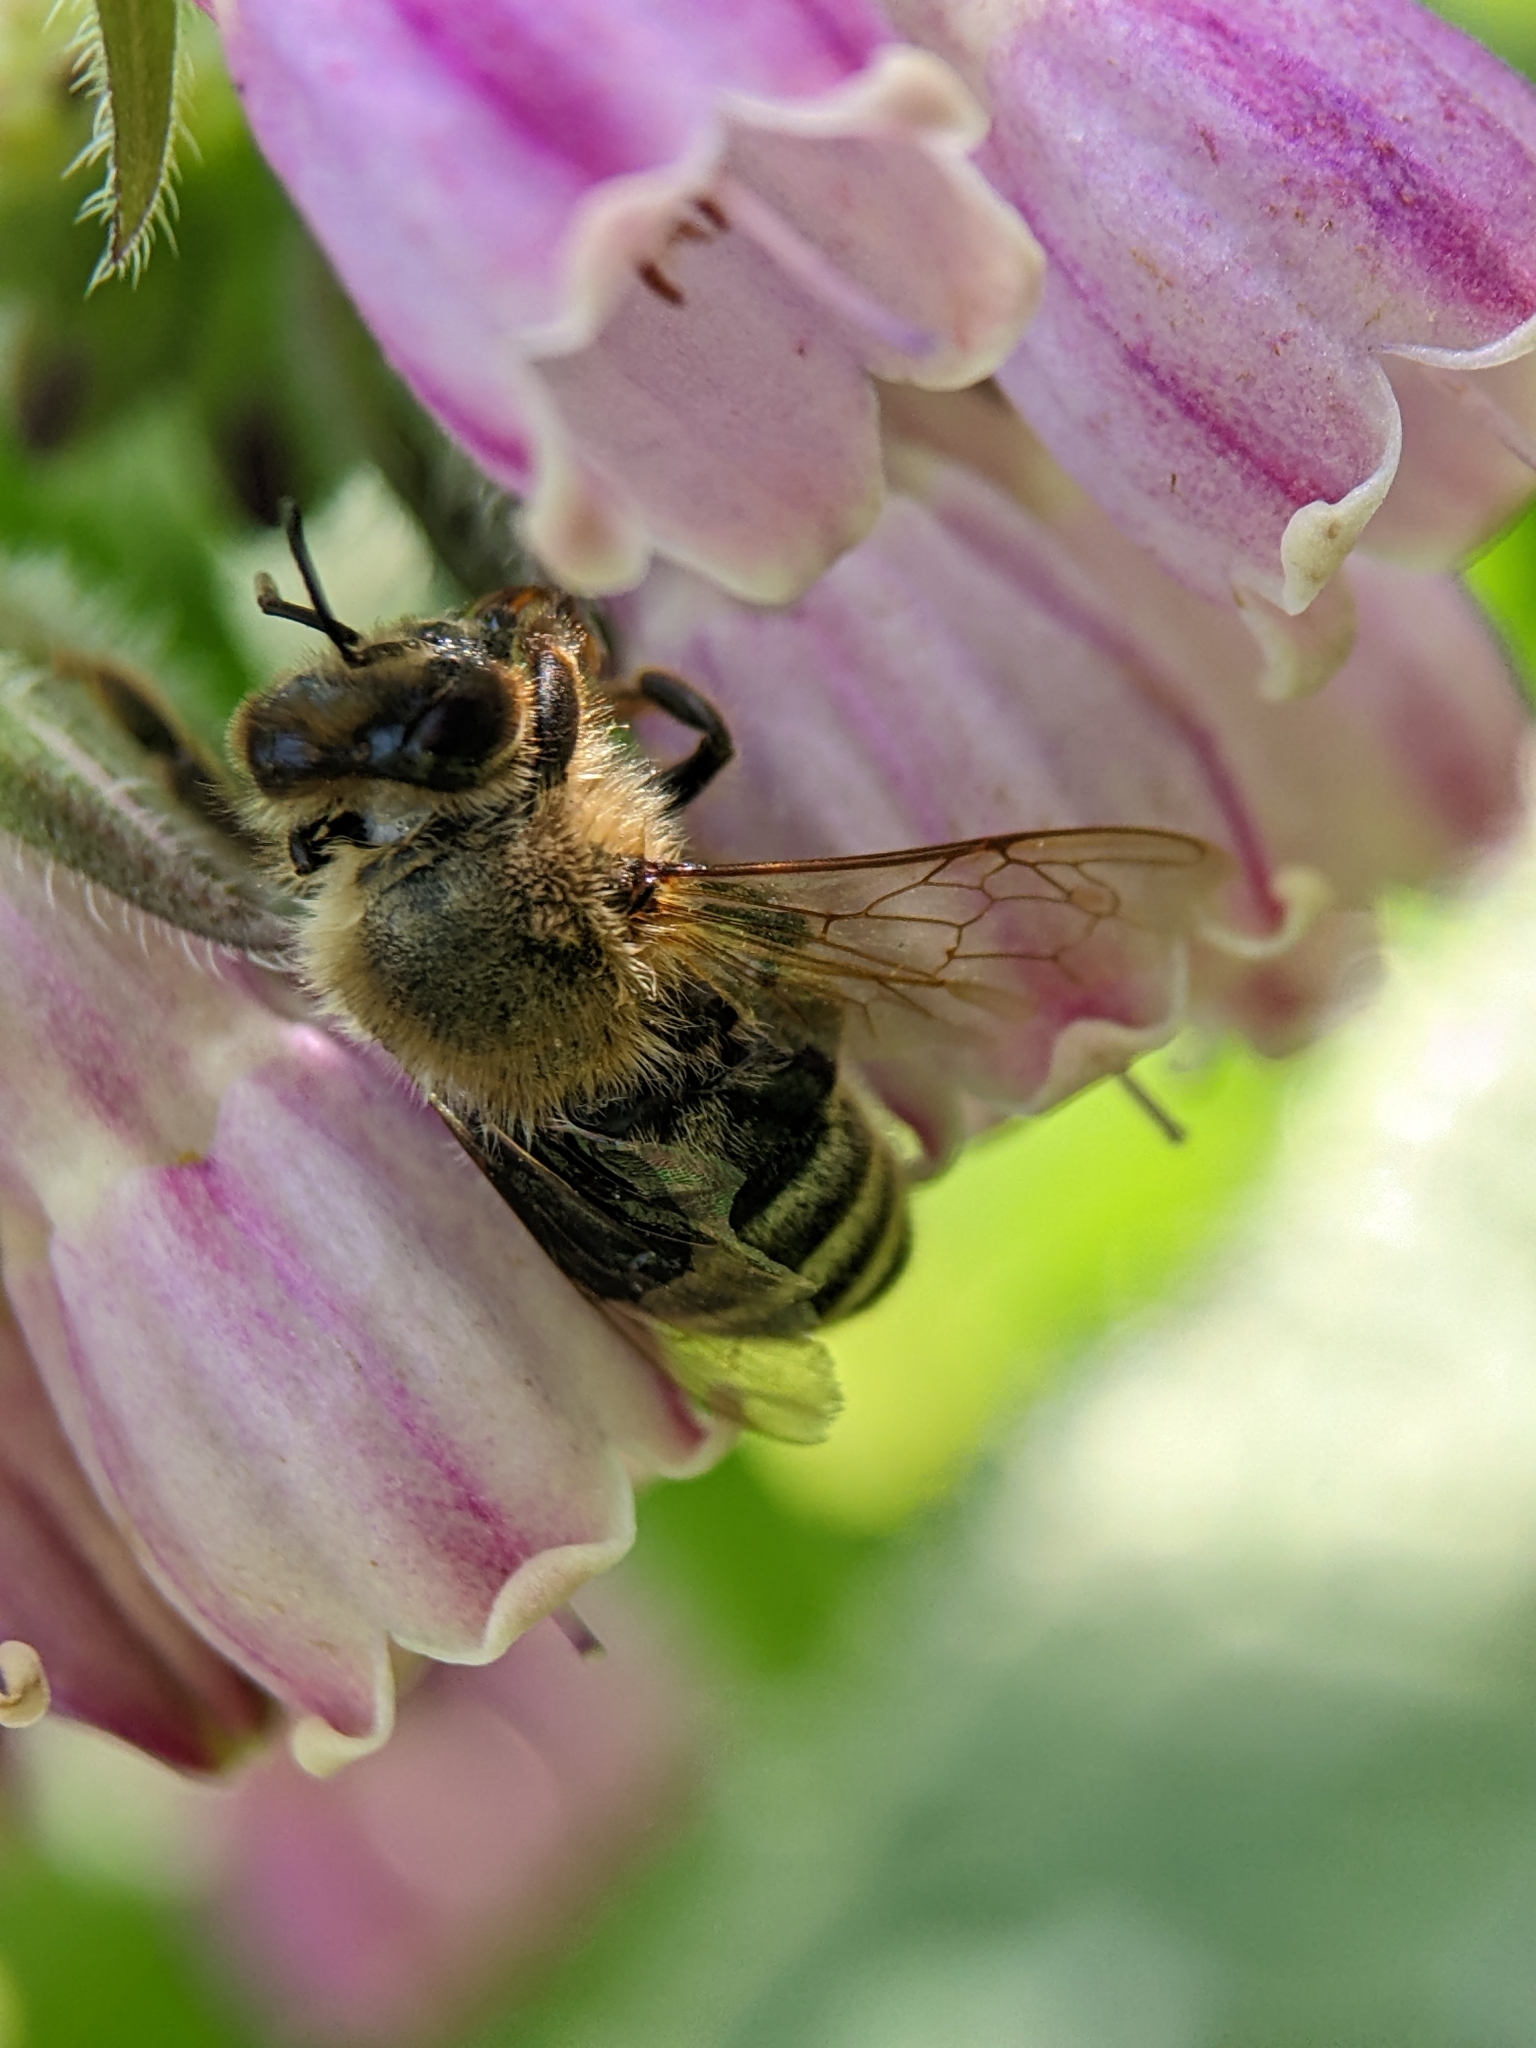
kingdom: Animalia
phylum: Arthropoda
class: Insecta
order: Hymenoptera
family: Apidae
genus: Apis
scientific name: Apis mellifera
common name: Honey bee
